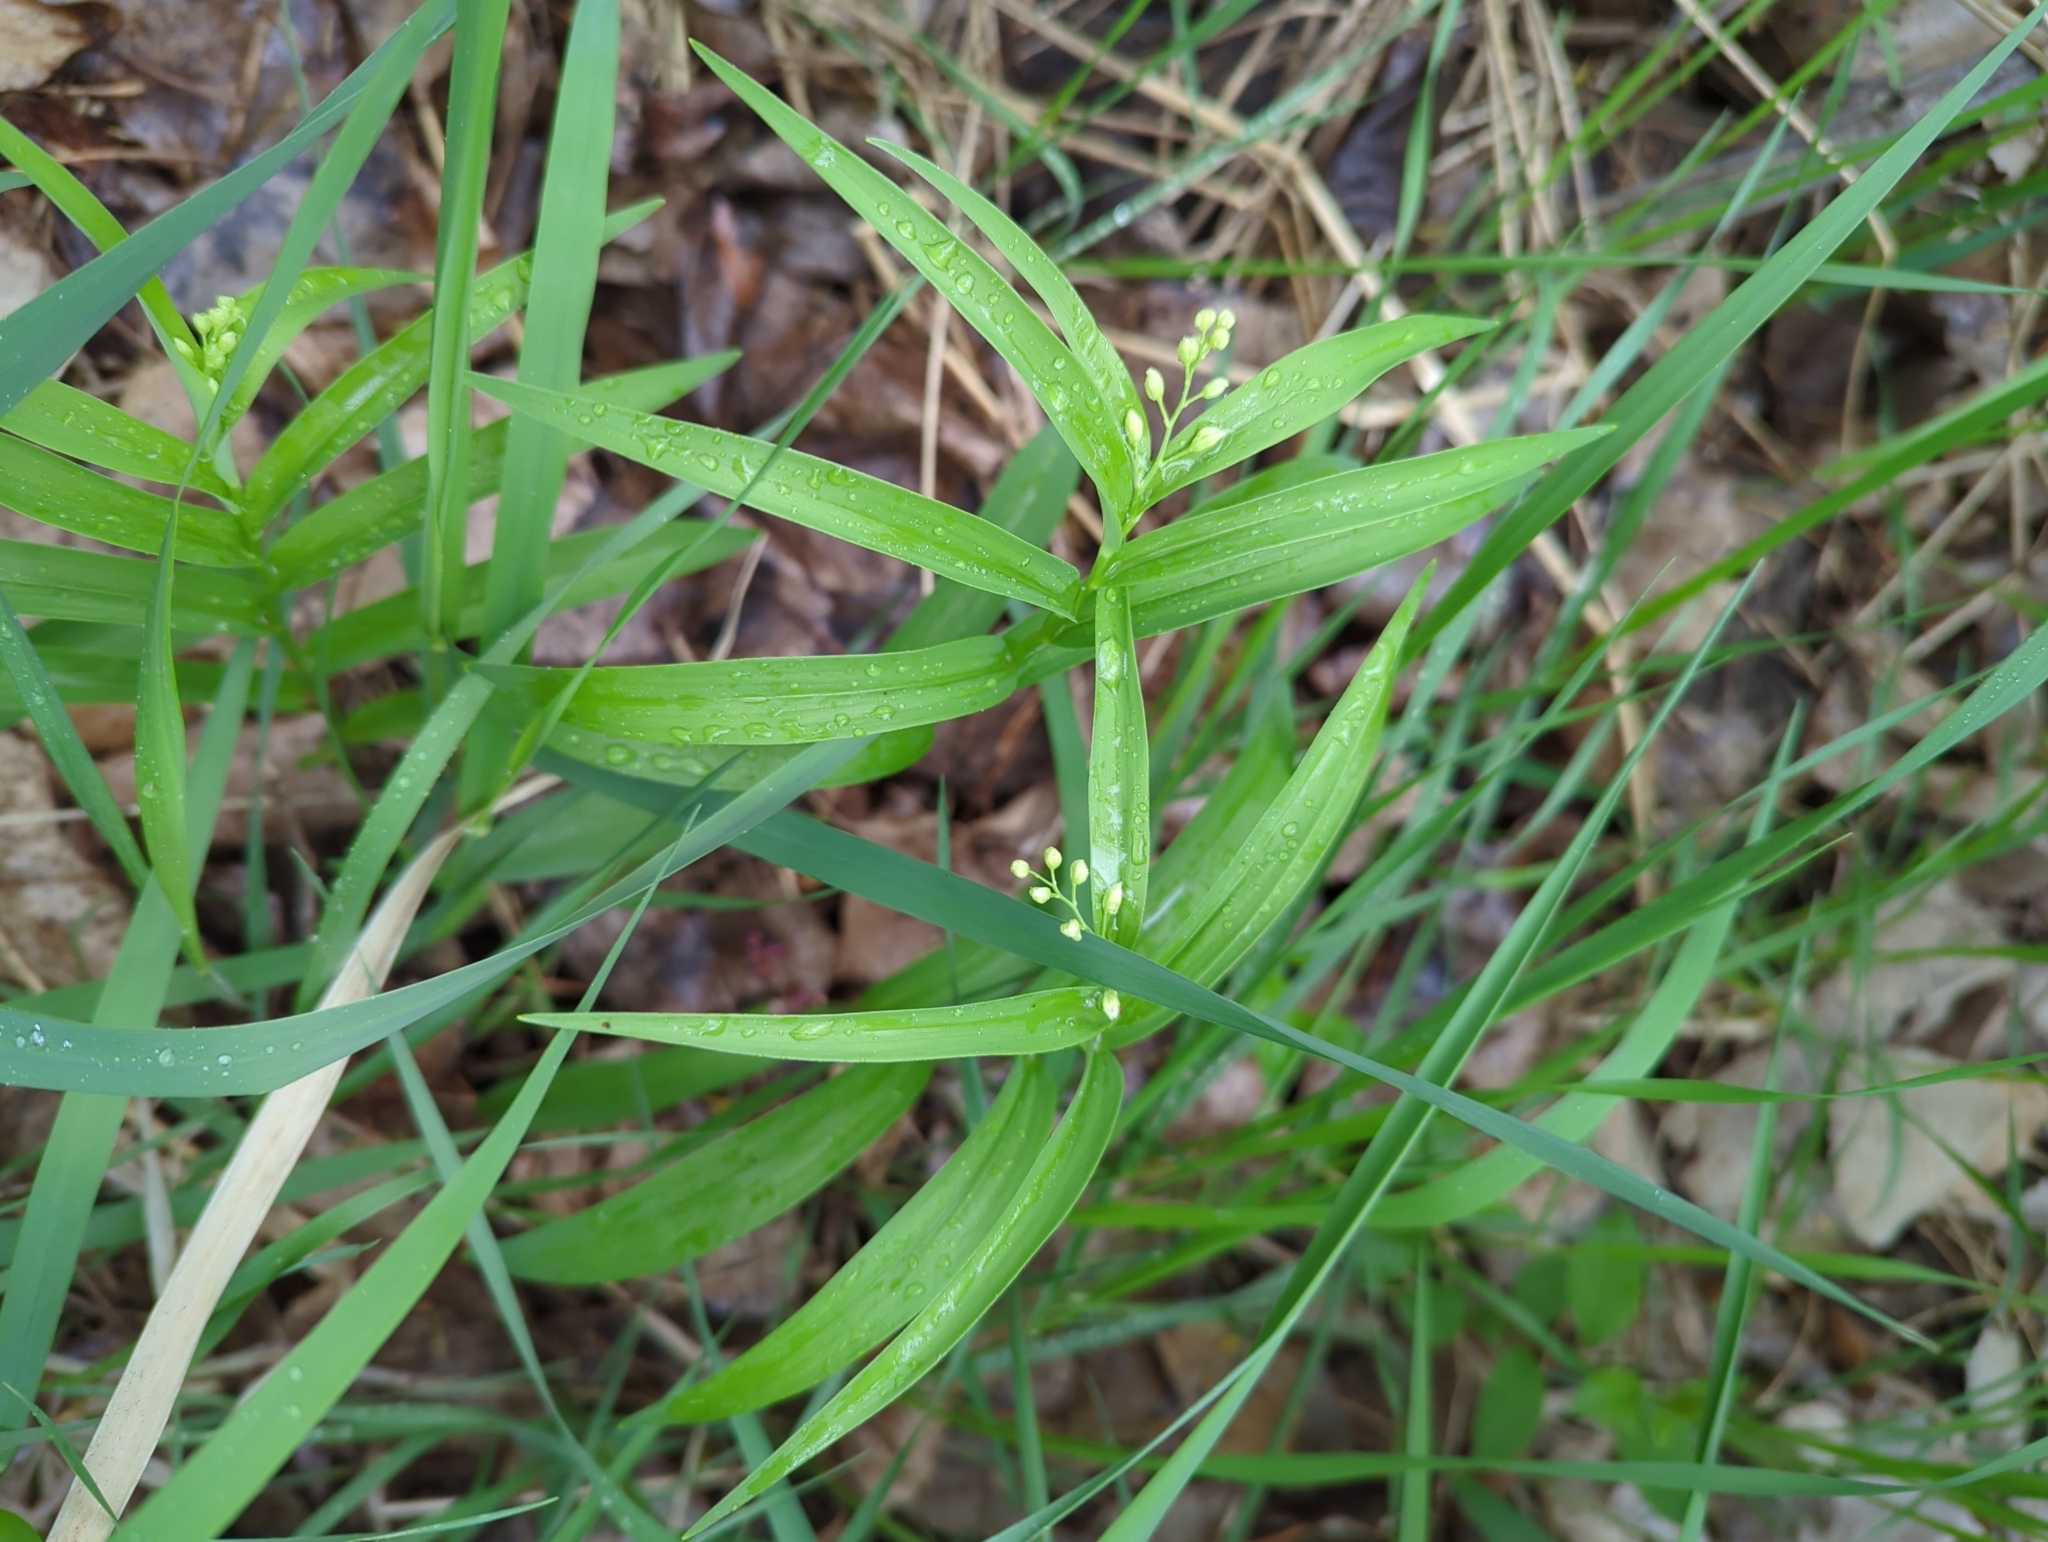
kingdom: Plantae
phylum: Tracheophyta
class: Liliopsida
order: Asparagales
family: Asparagaceae
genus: Maianthemum
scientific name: Maianthemum stellatum
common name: Little false solomon's seal
